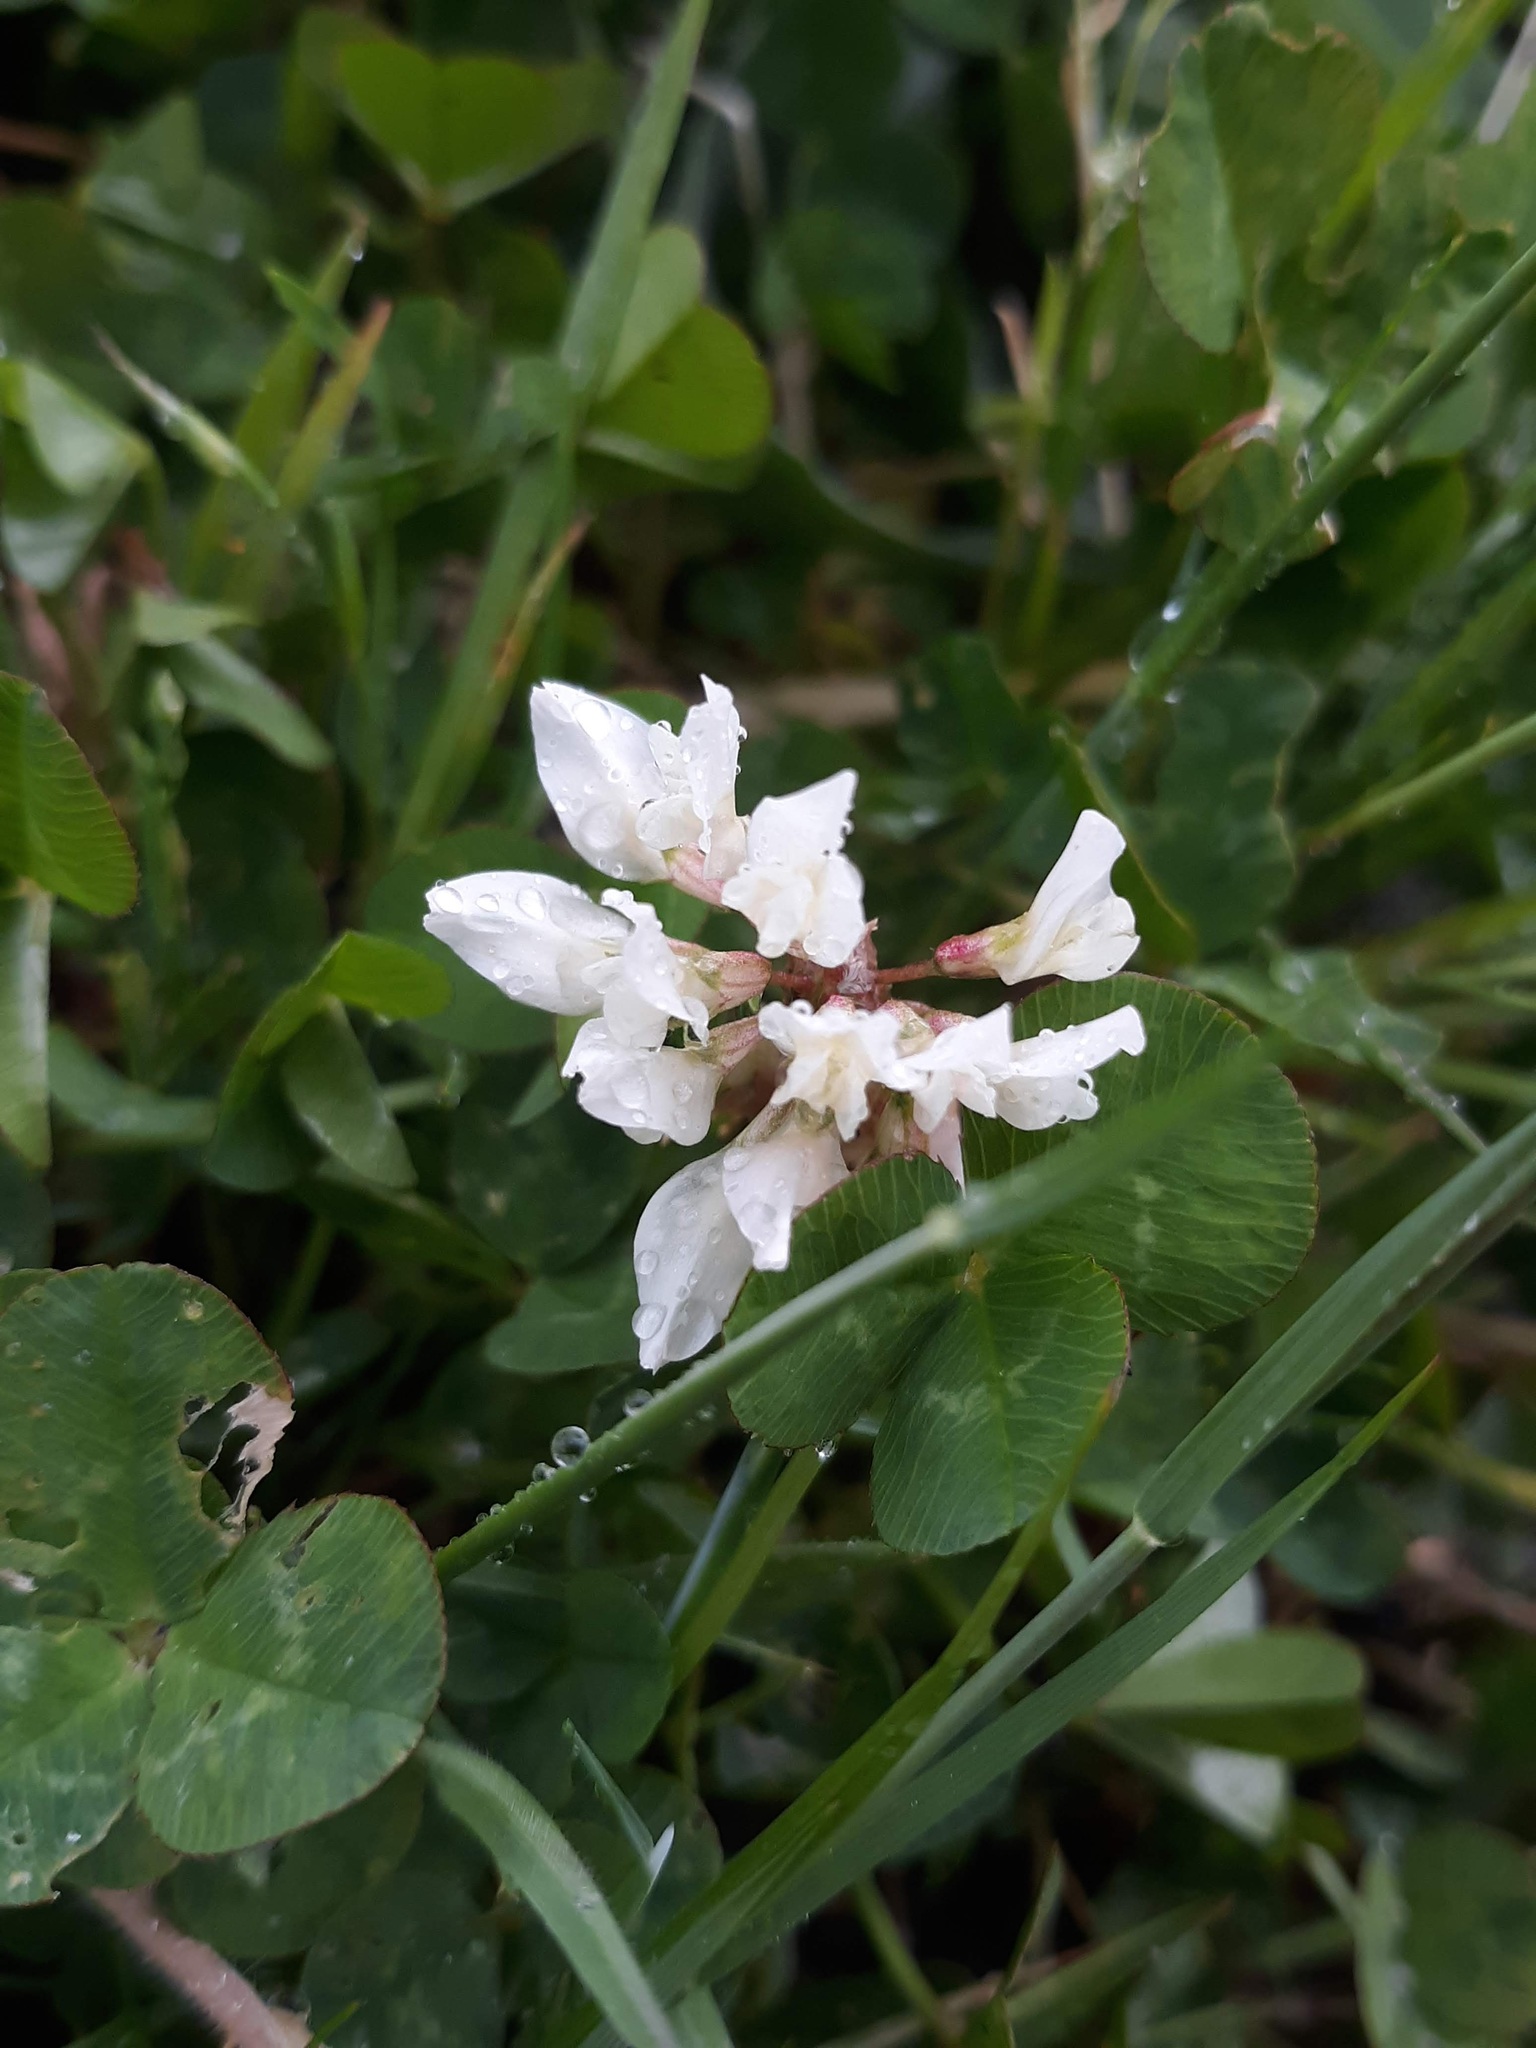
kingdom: Plantae
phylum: Tracheophyta
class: Magnoliopsida
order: Fabales
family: Fabaceae
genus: Trifolium
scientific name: Trifolium repens
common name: White clover
